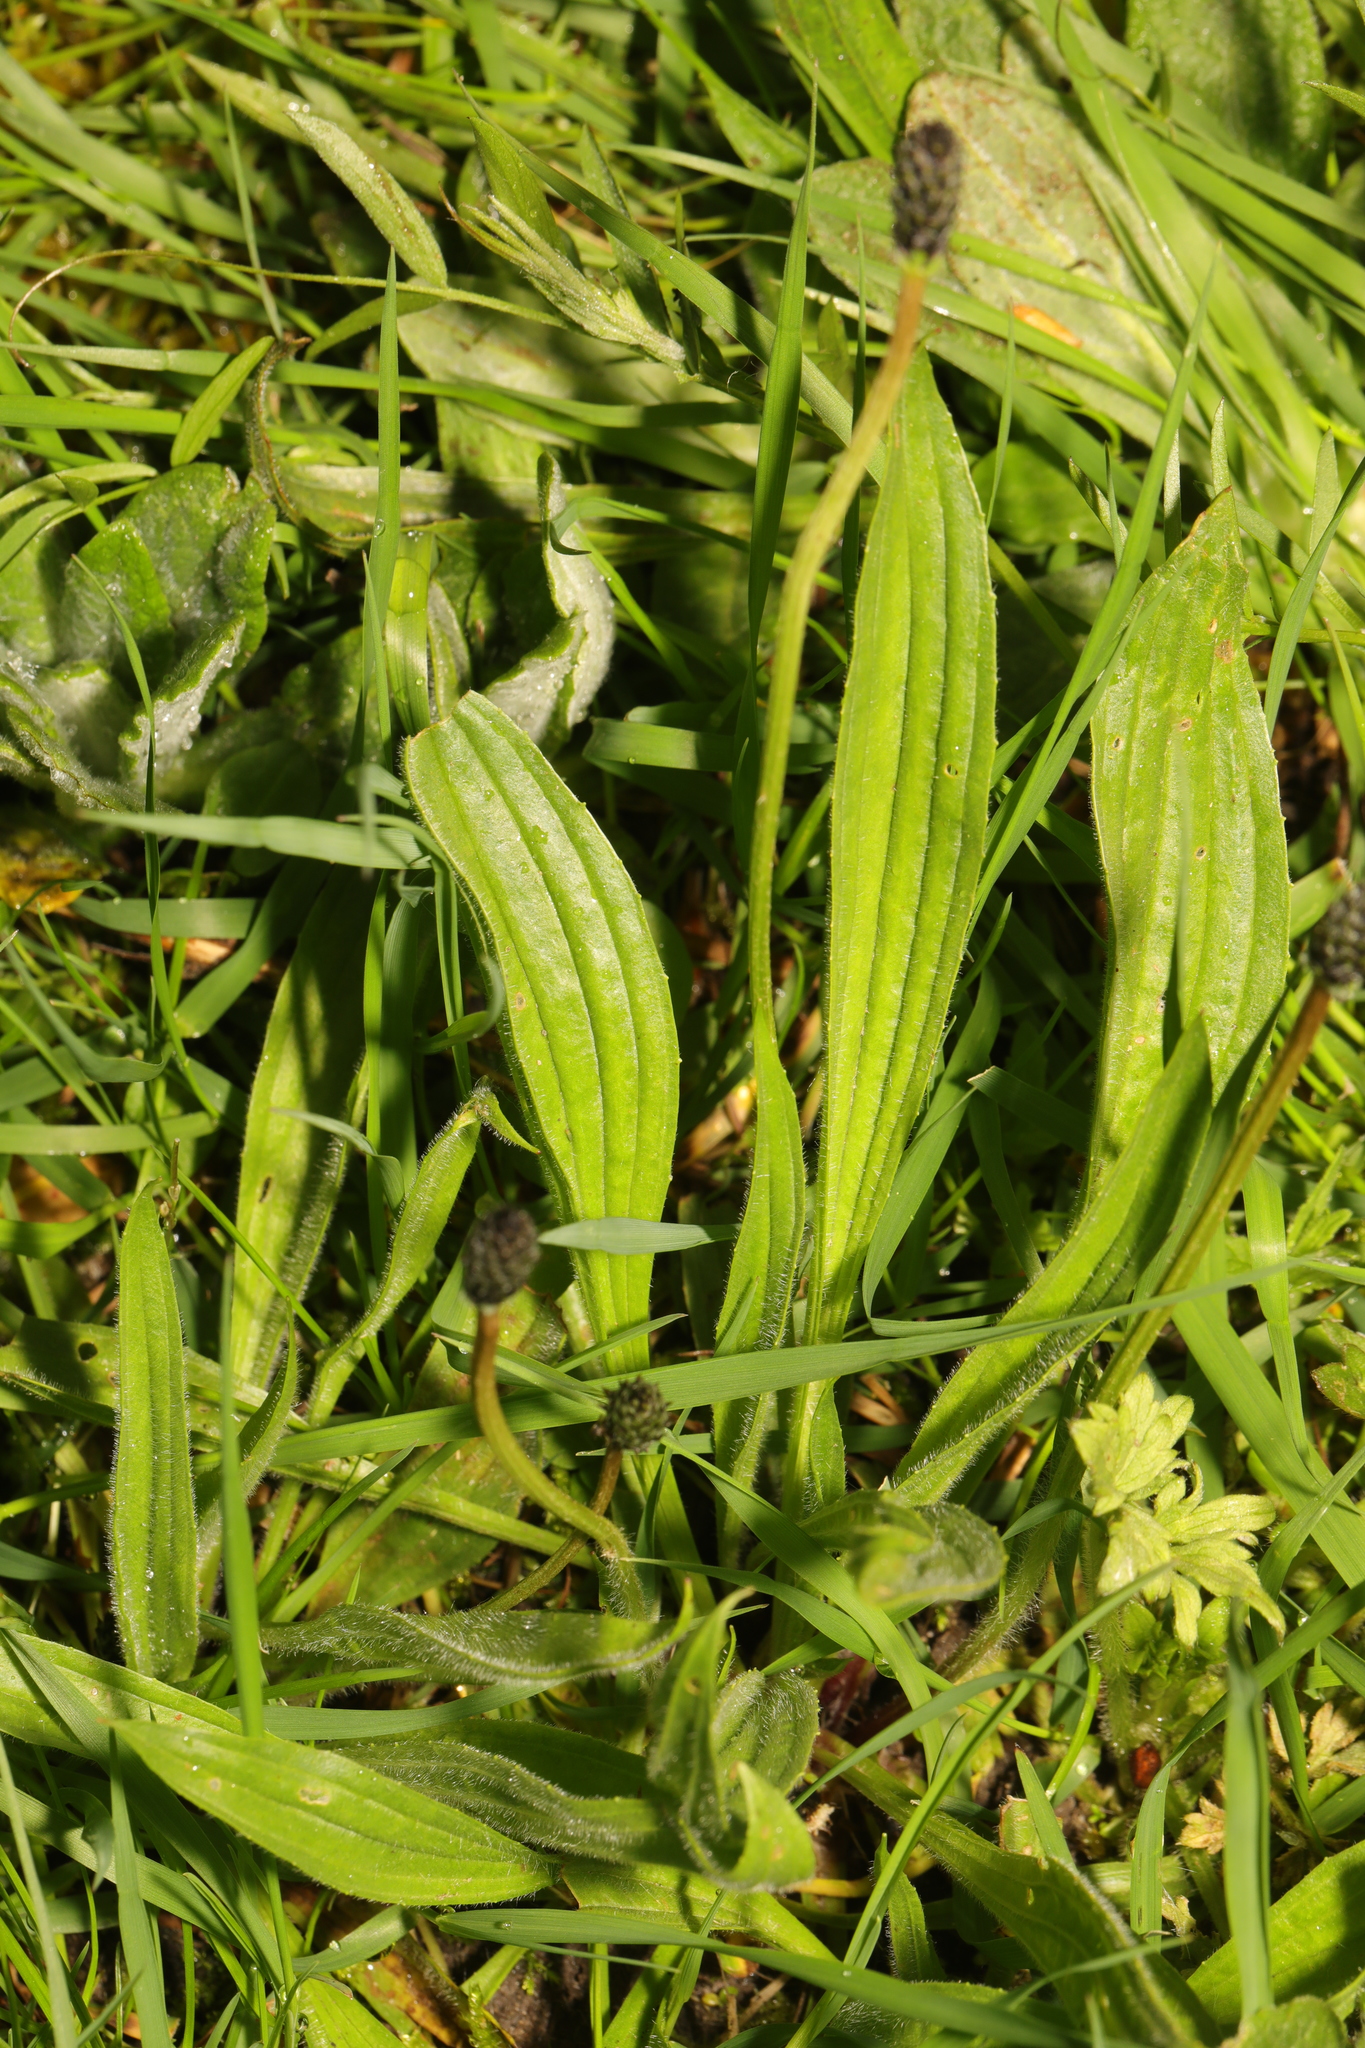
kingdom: Plantae
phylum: Tracheophyta
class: Magnoliopsida
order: Lamiales
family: Plantaginaceae
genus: Plantago
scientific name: Plantago lanceolata
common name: Ribwort plantain
